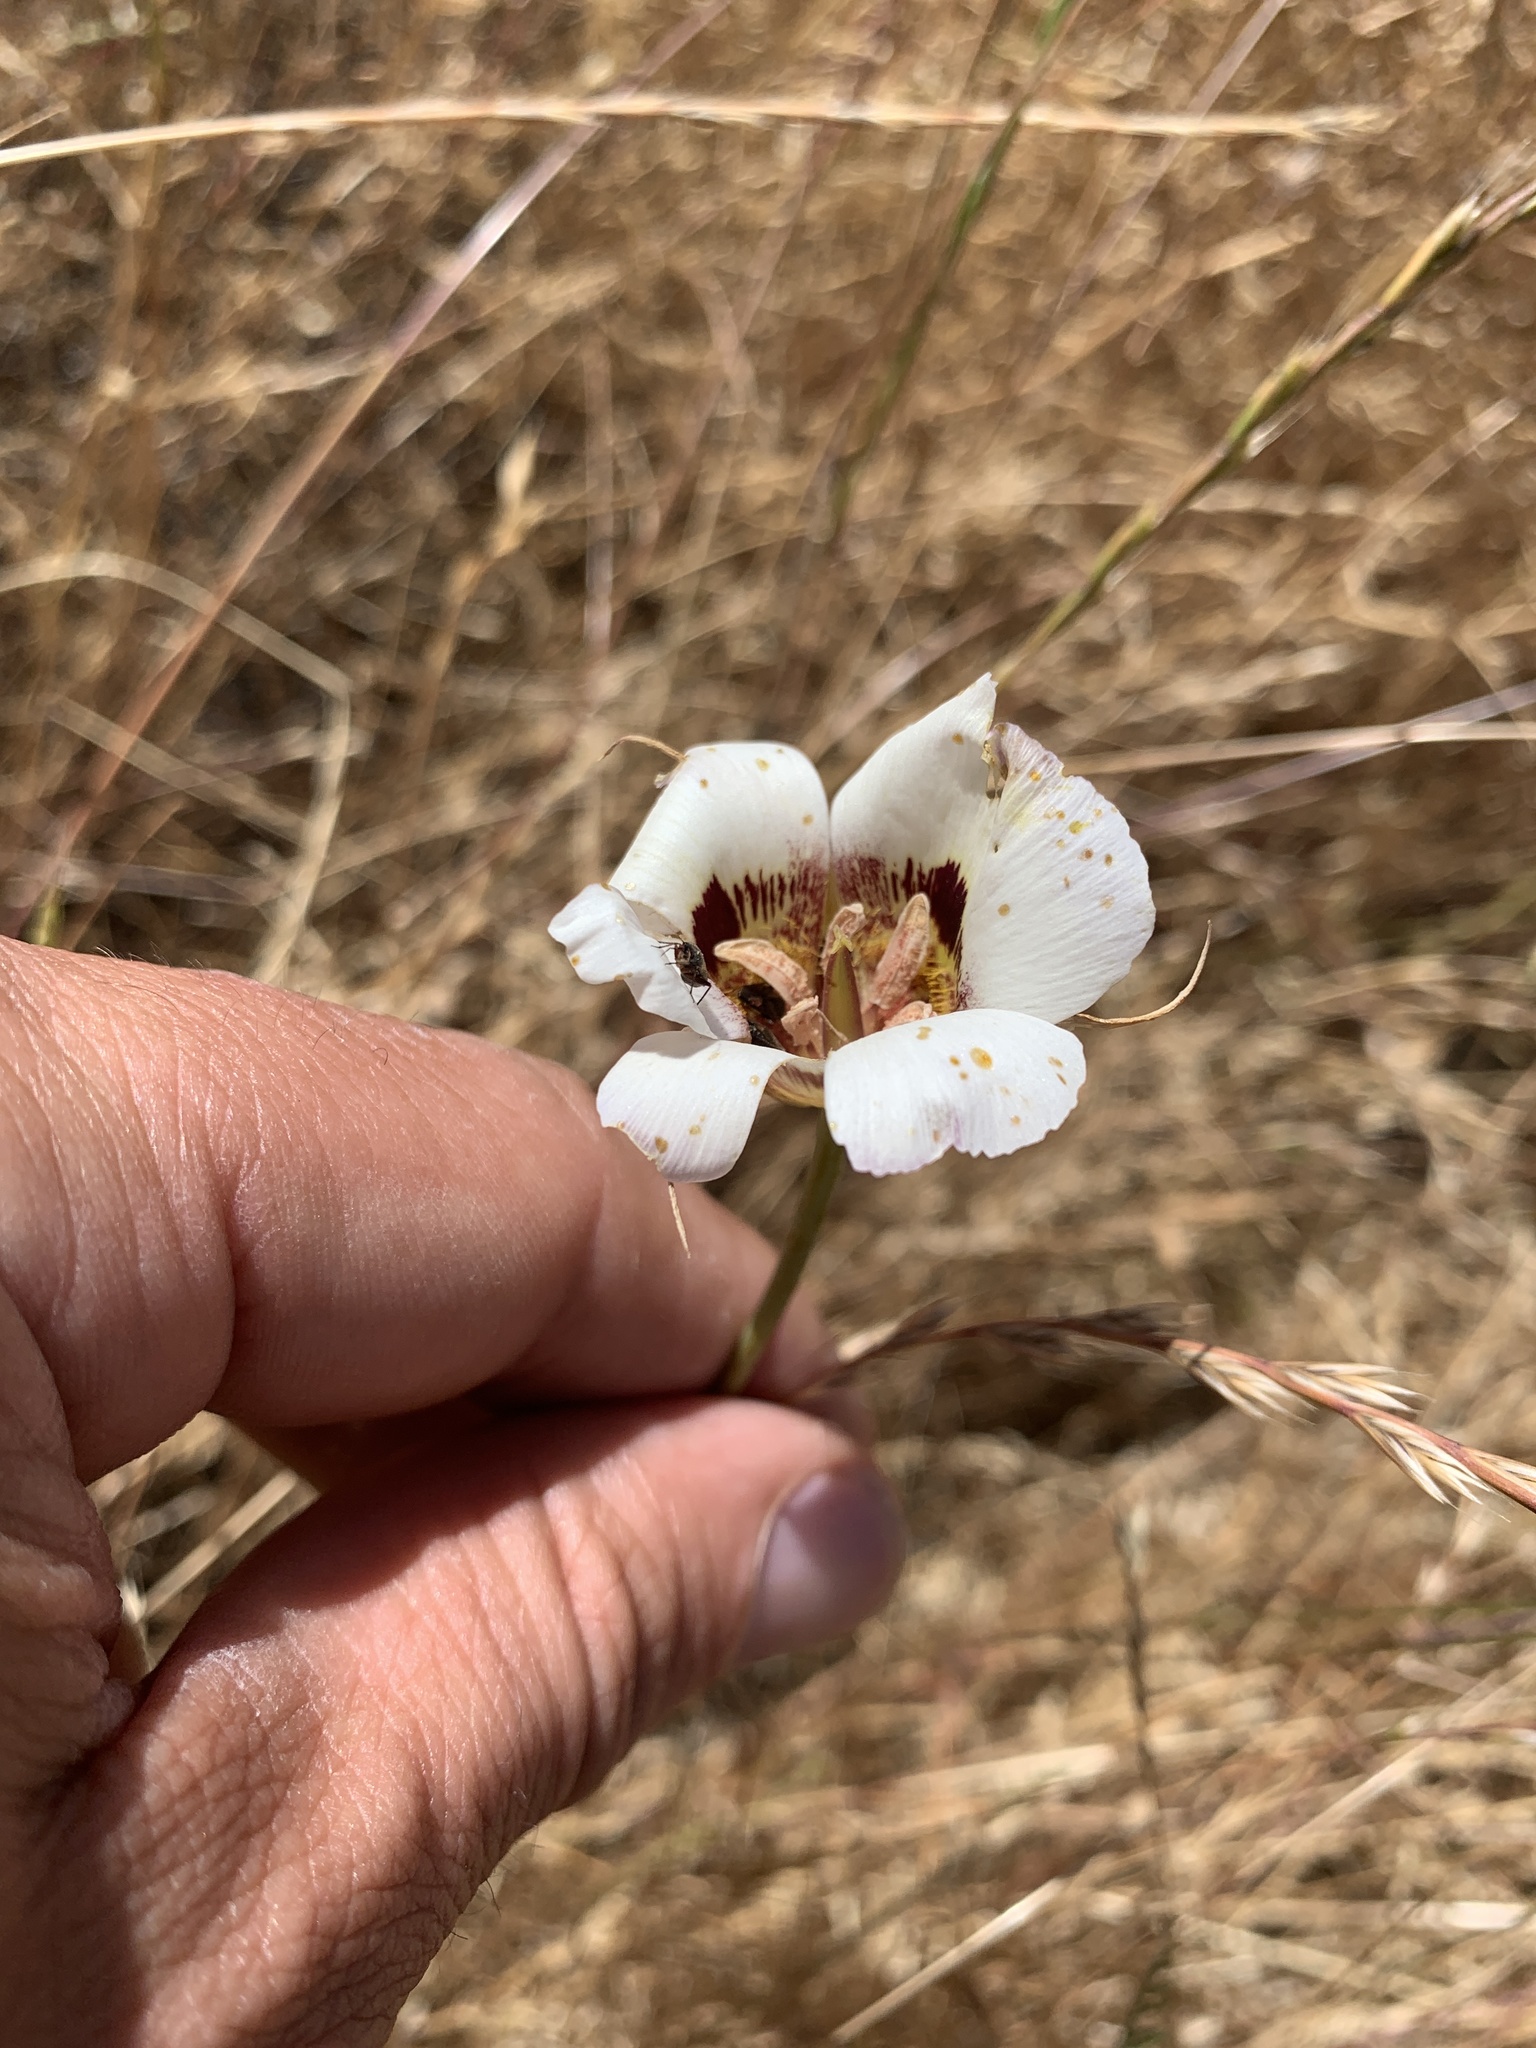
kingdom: Plantae
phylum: Tracheophyta
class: Liliopsida
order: Liliales
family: Liliaceae
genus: Calochortus
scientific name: Calochortus vestae
